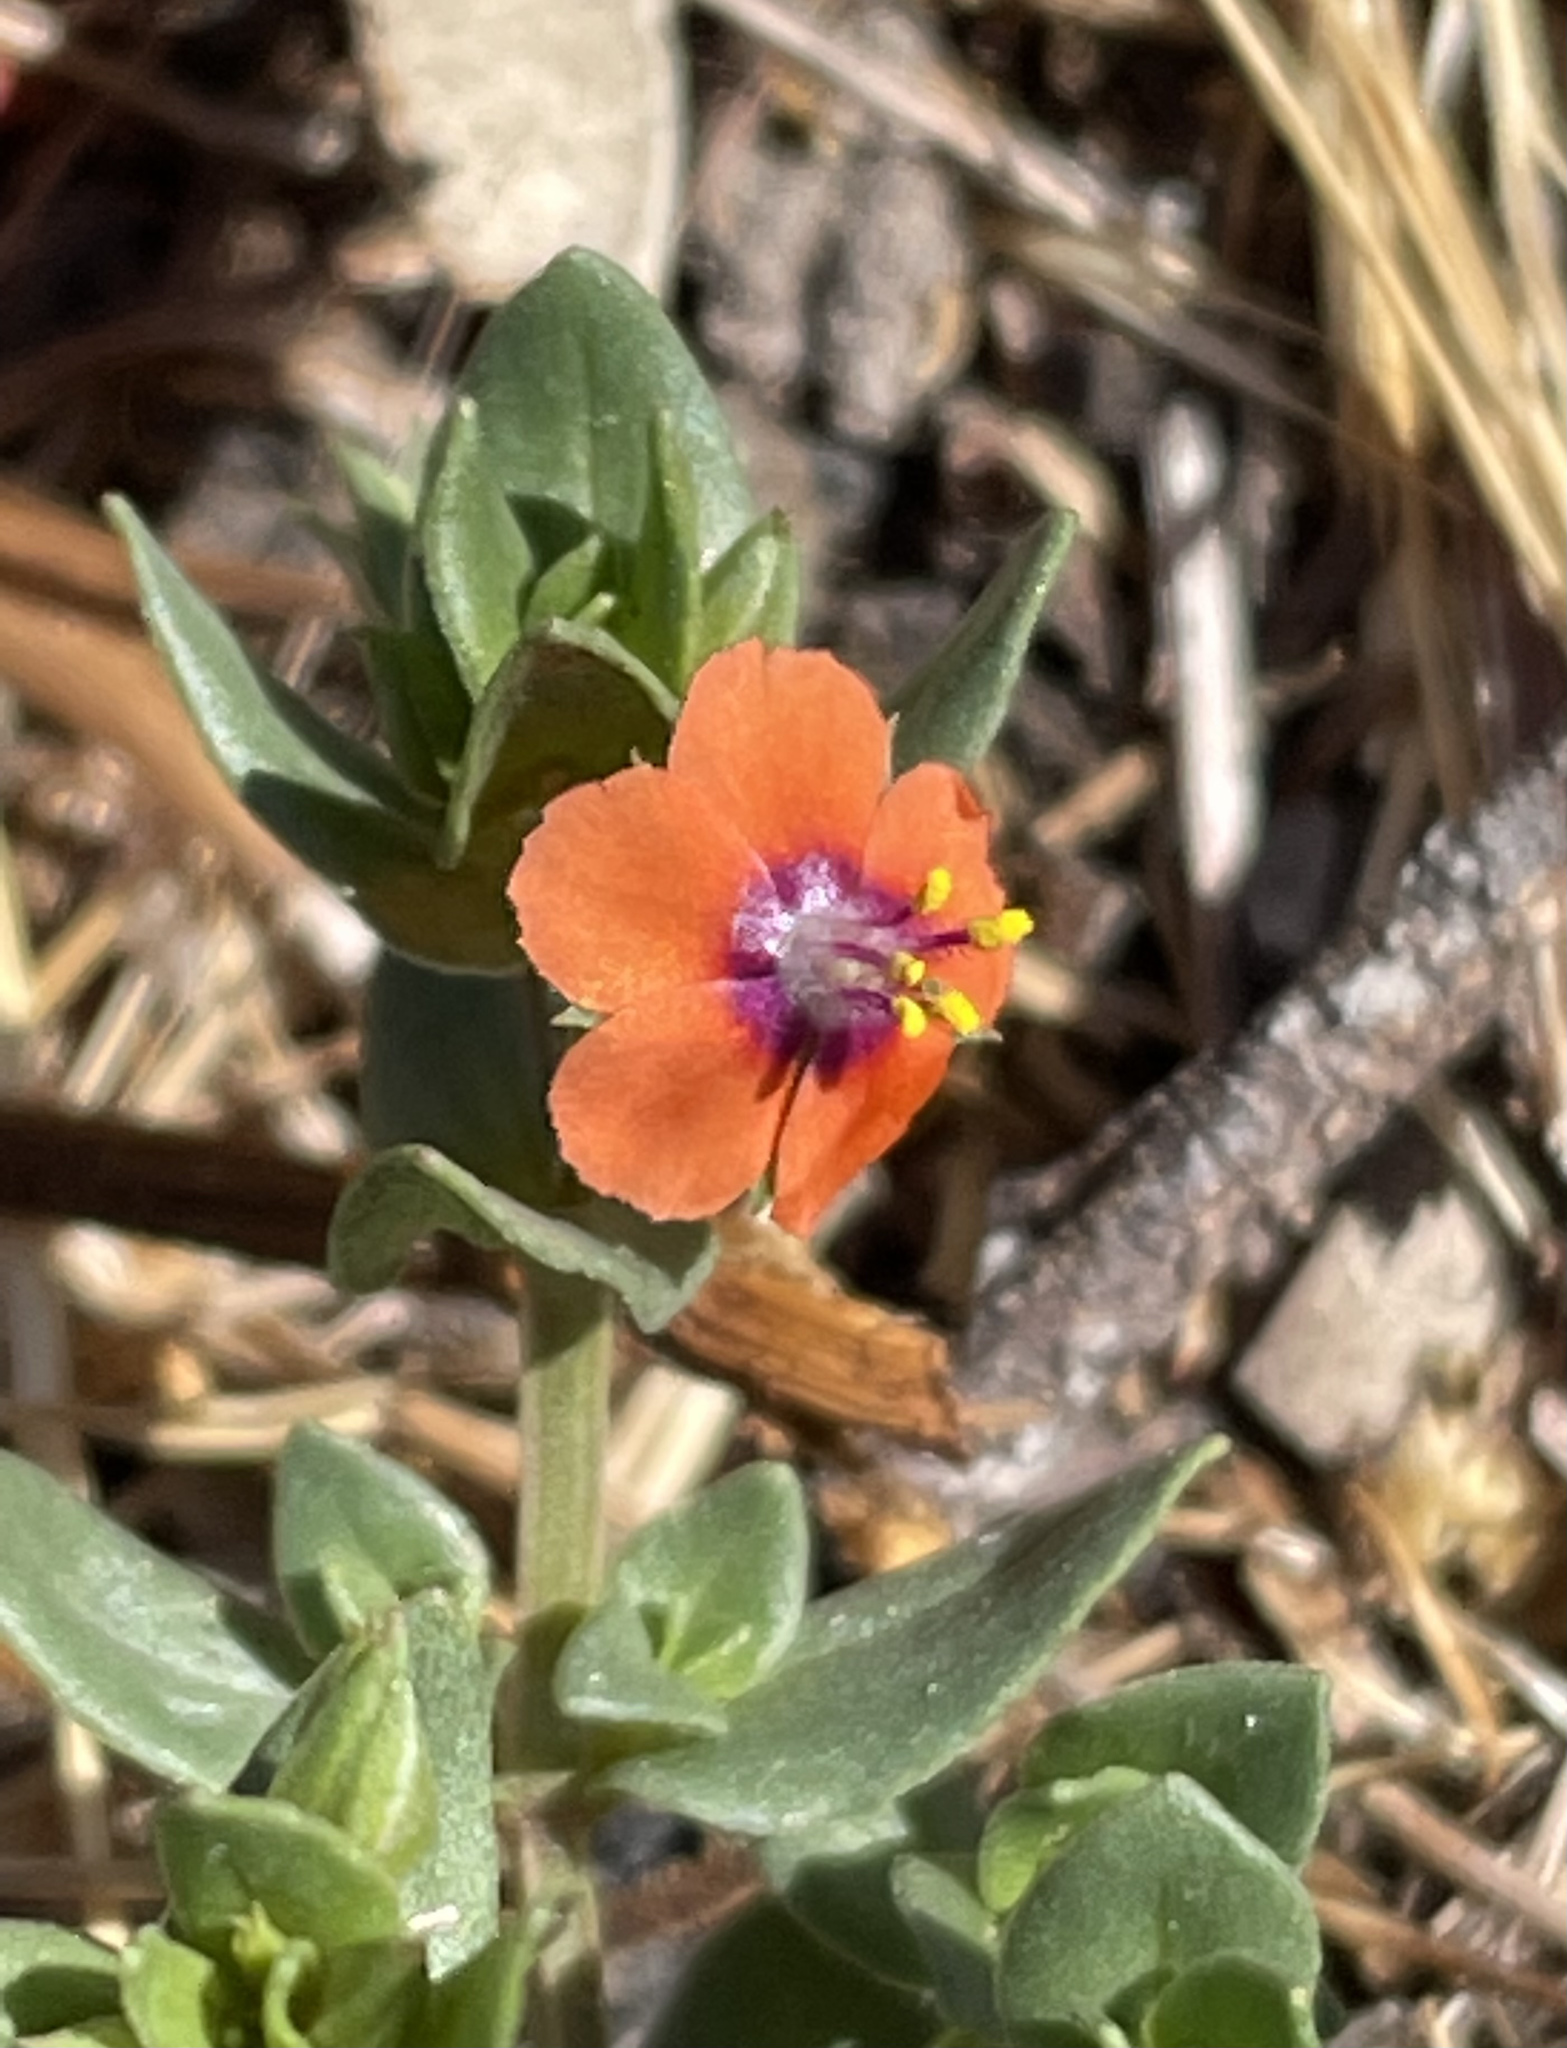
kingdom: Plantae
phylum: Tracheophyta
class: Magnoliopsida
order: Ericales
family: Primulaceae
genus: Lysimachia
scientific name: Lysimachia arvensis
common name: Scarlet pimpernel
